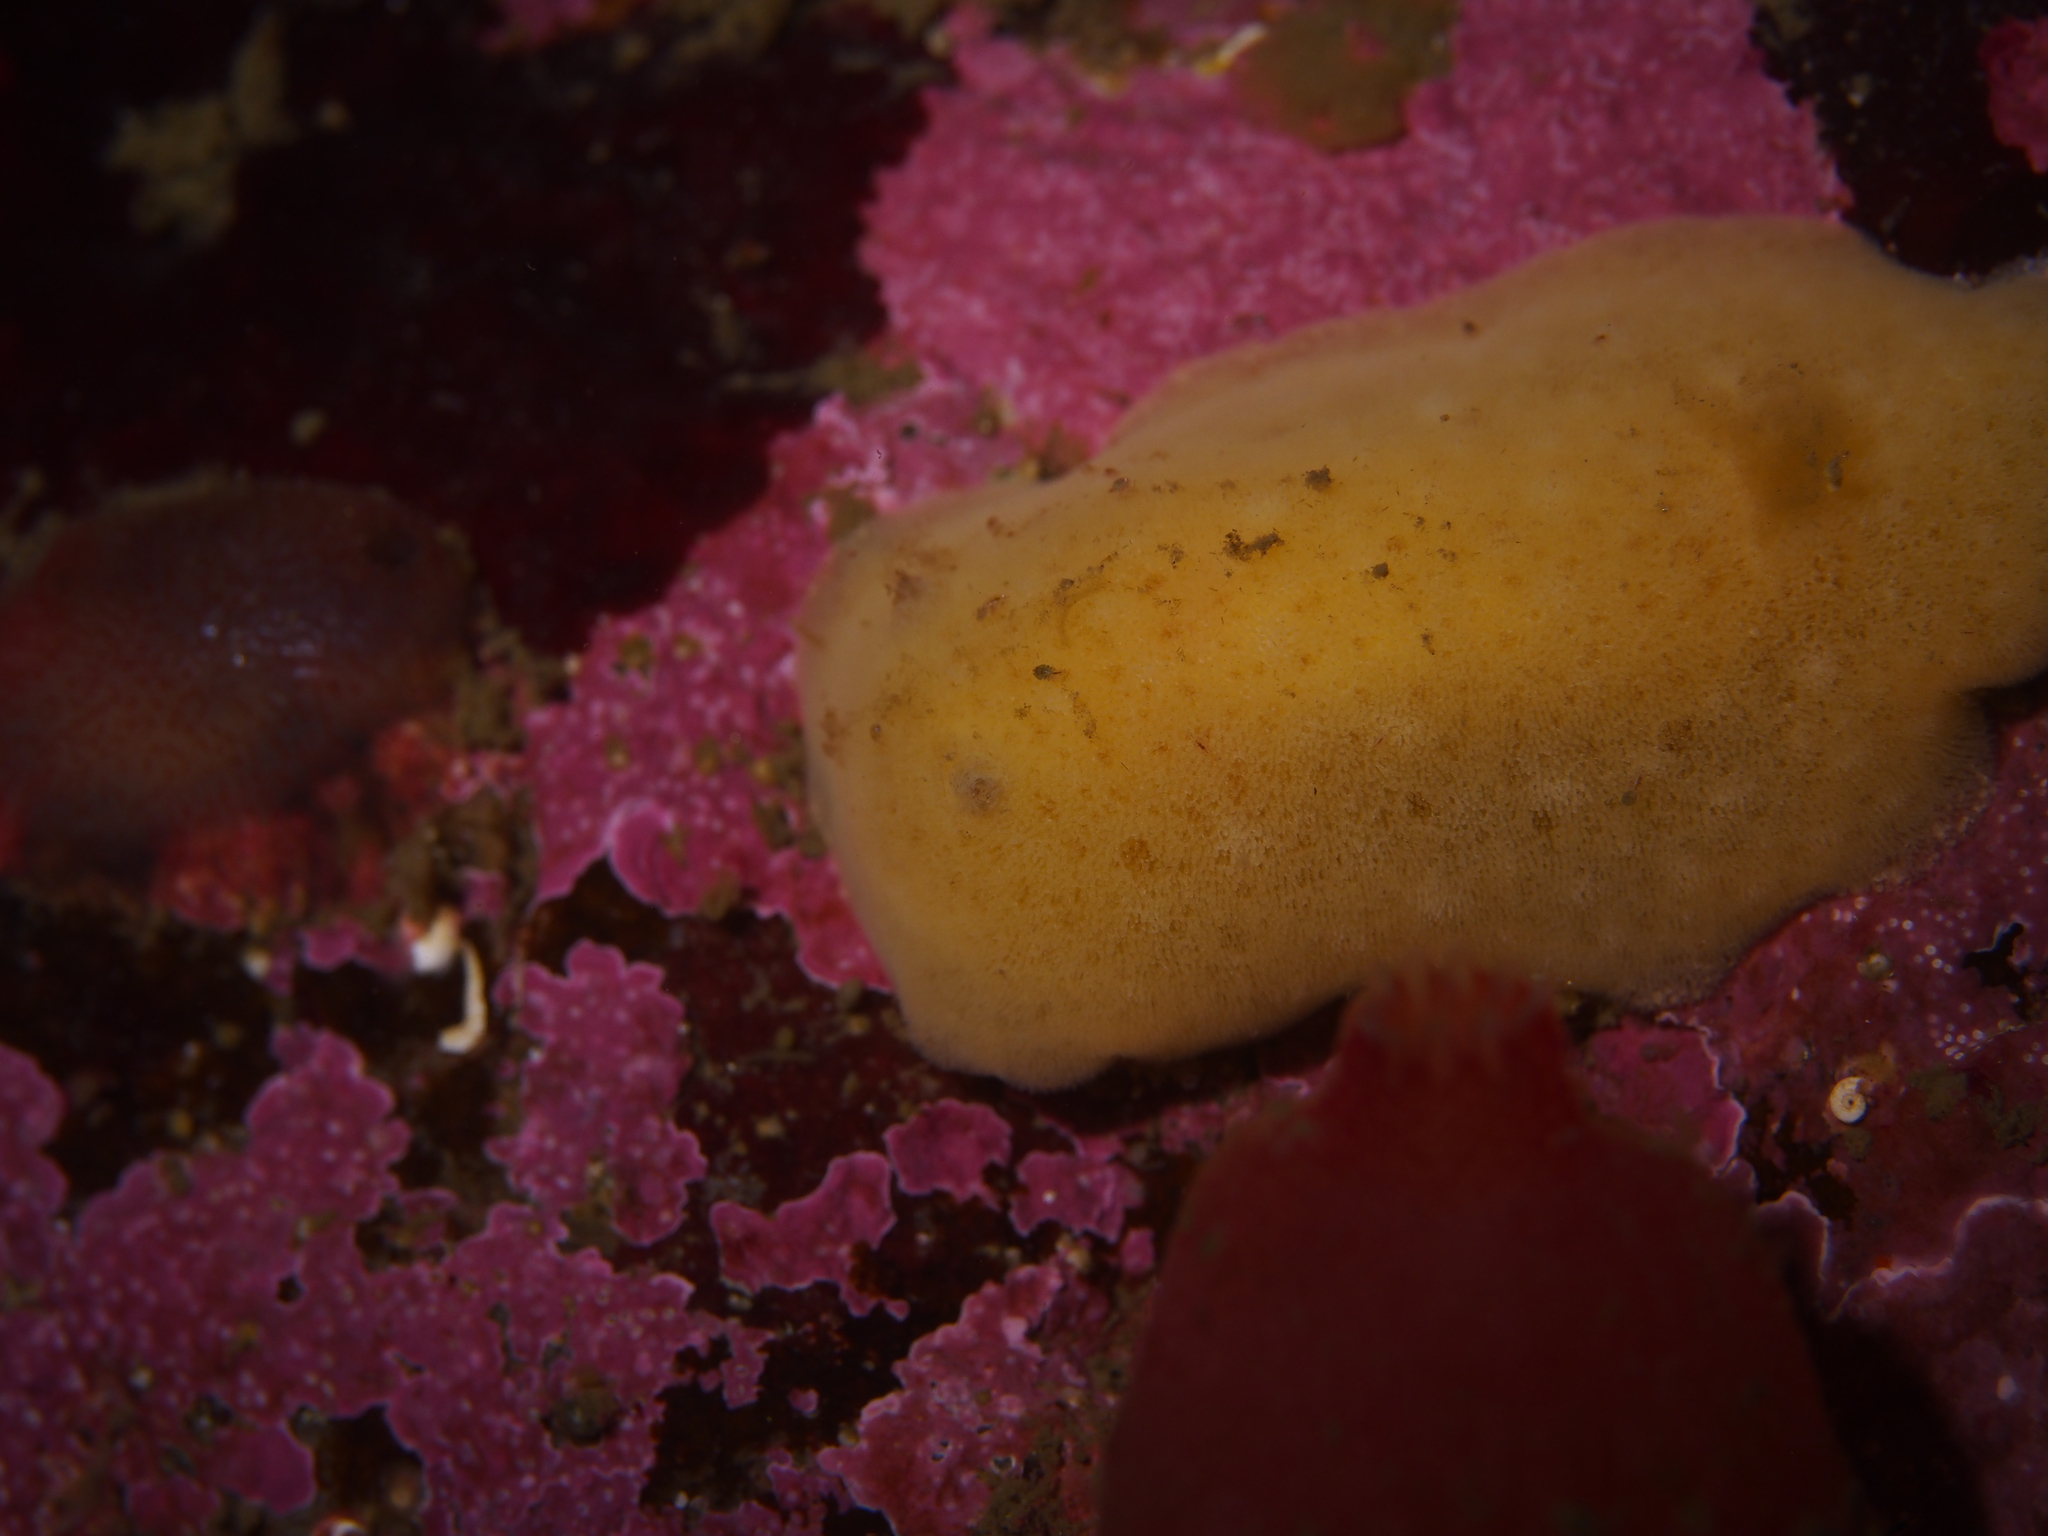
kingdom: Animalia
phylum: Mollusca
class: Gastropoda
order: Nudibranchia
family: Discodorididae
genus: Jorunna
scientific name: Jorunna tomentosa
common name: Grey sea slug
